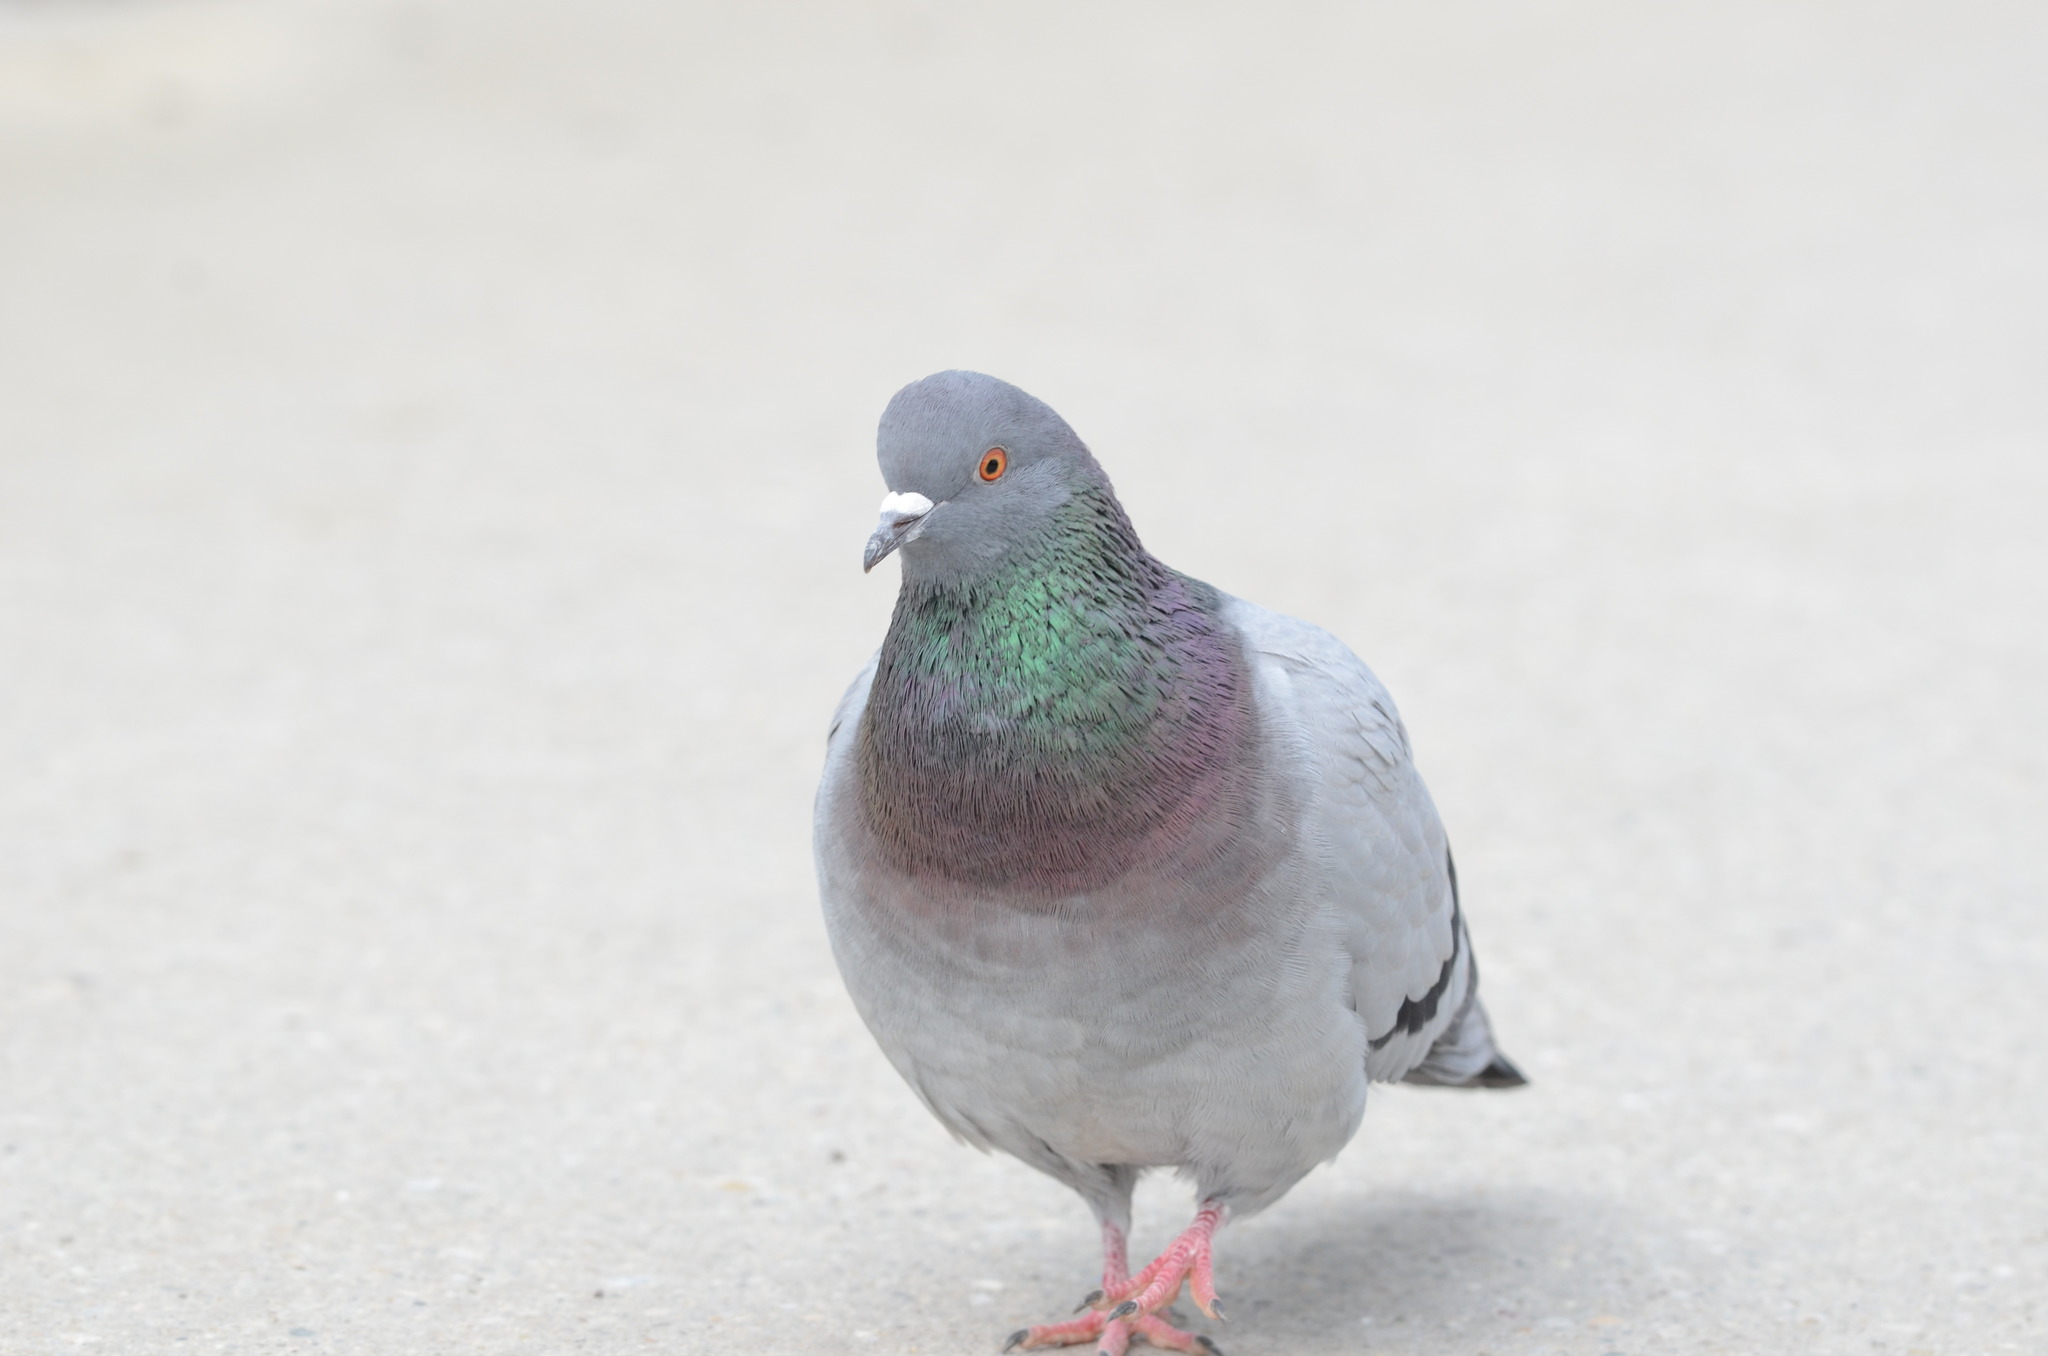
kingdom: Animalia
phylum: Chordata
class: Aves
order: Columbiformes
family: Columbidae
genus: Columba
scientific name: Columba livia
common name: Rock pigeon
